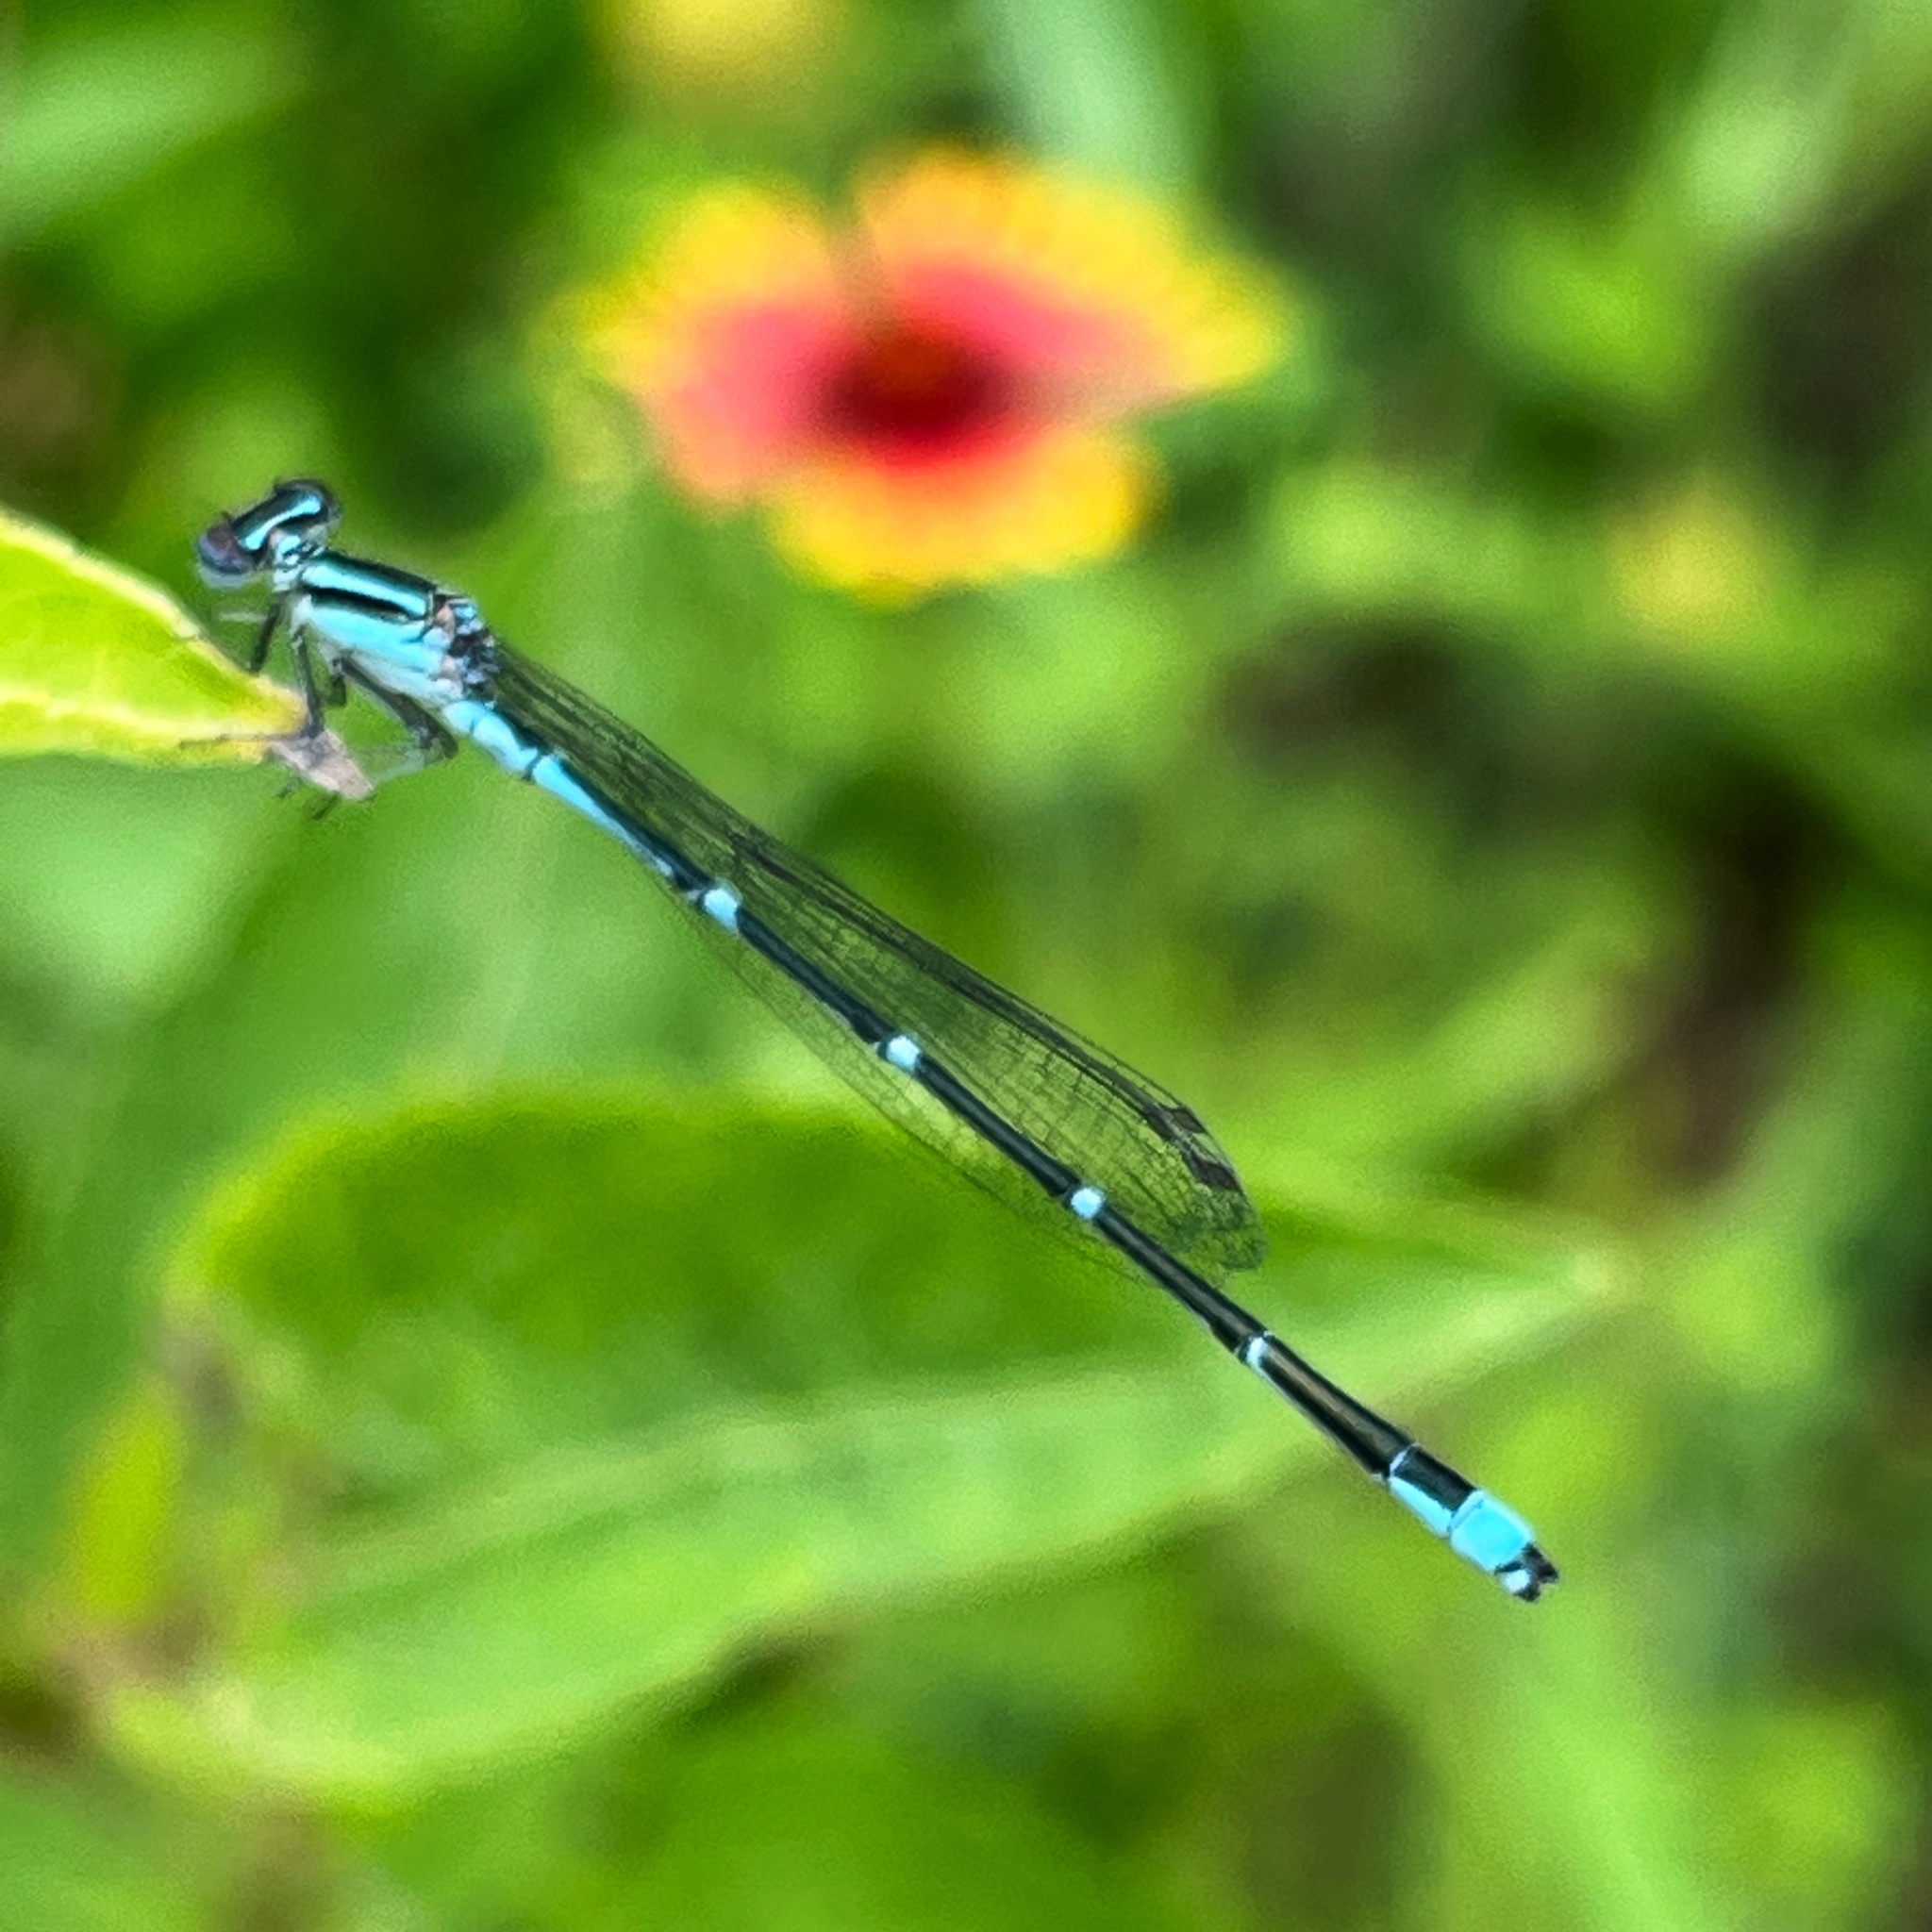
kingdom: Animalia
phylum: Arthropoda
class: Insecta
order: Odonata
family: Coenagrionidae
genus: Enallagma
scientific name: Enallagma exsulans
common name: Stream bluet
